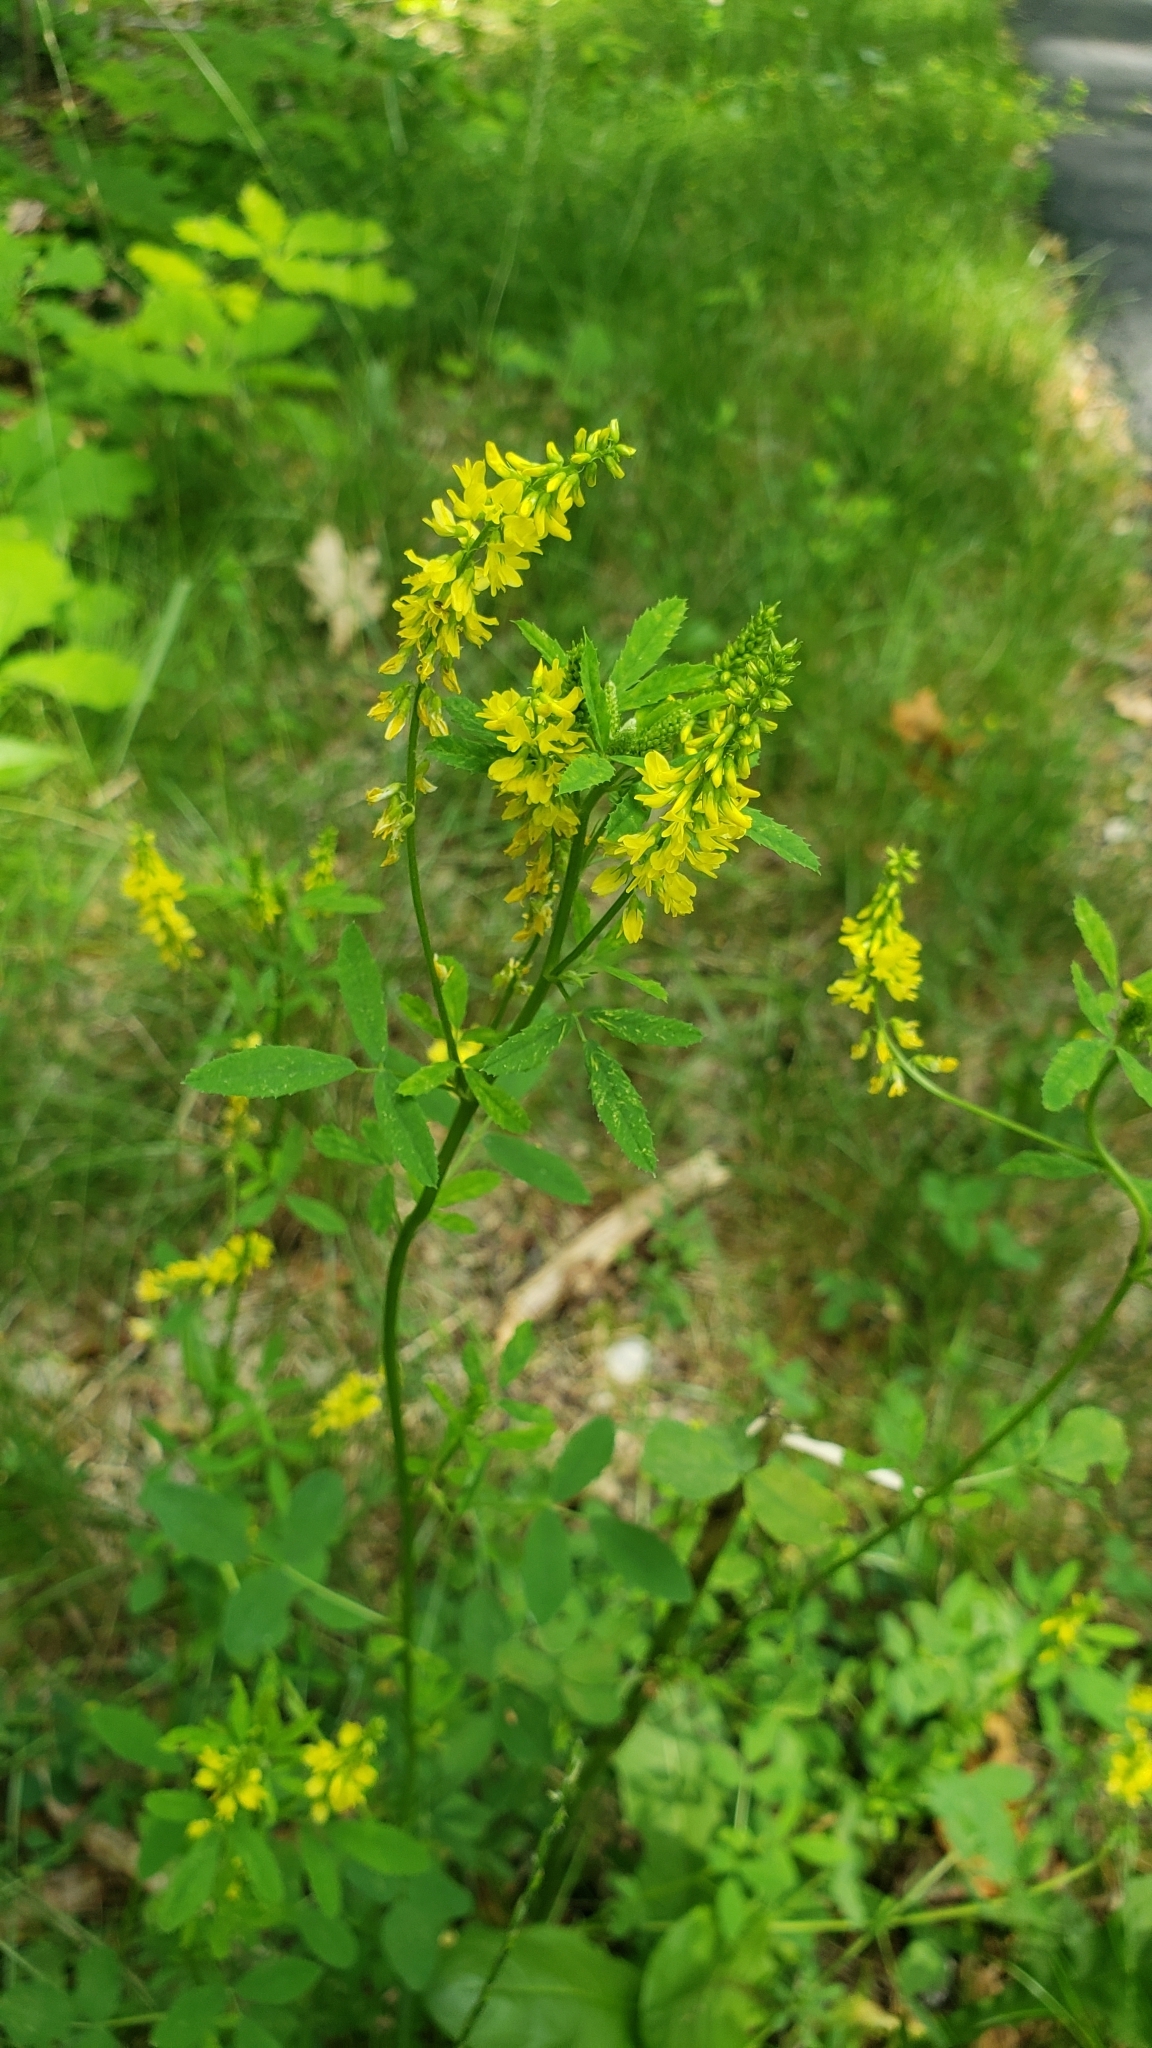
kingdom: Plantae
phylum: Tracheophyta
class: Magnoliopsida
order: Fabales
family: Fabaceae
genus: Melilotus
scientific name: Melilotus officinalis
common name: Sweetclover
